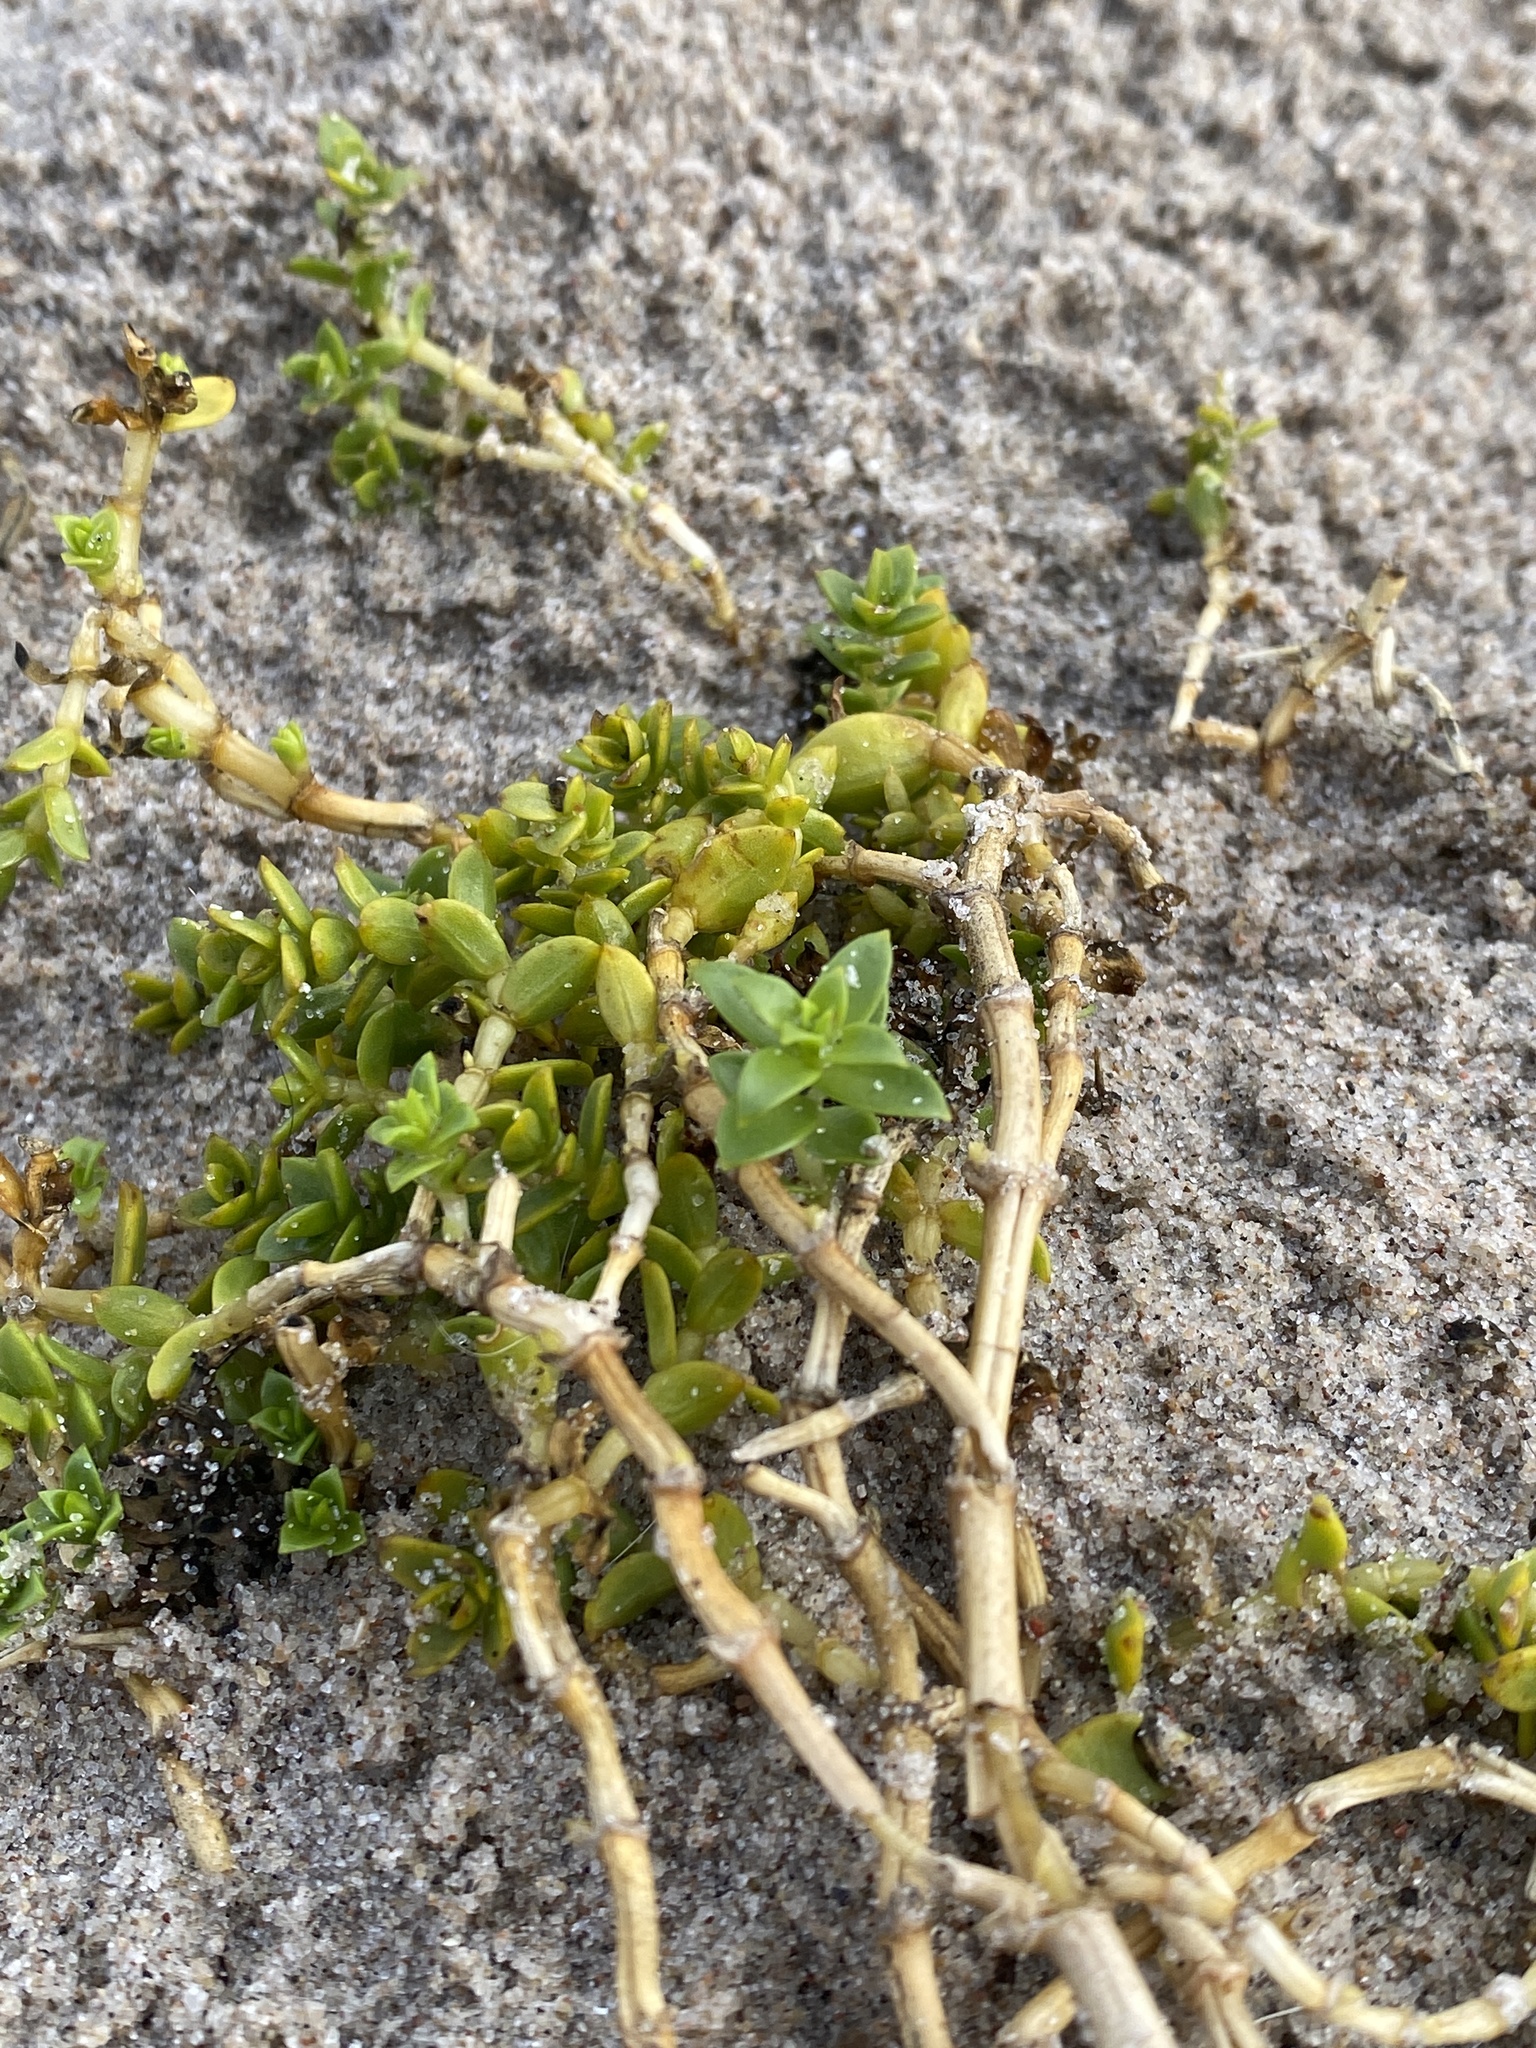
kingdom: Plantae
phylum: Tracheophyta
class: Magnoliopsida
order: Caryophyllales
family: Caryophyllaceae
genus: Honckenya
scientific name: Honckenya peploides
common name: Sea sandwort
